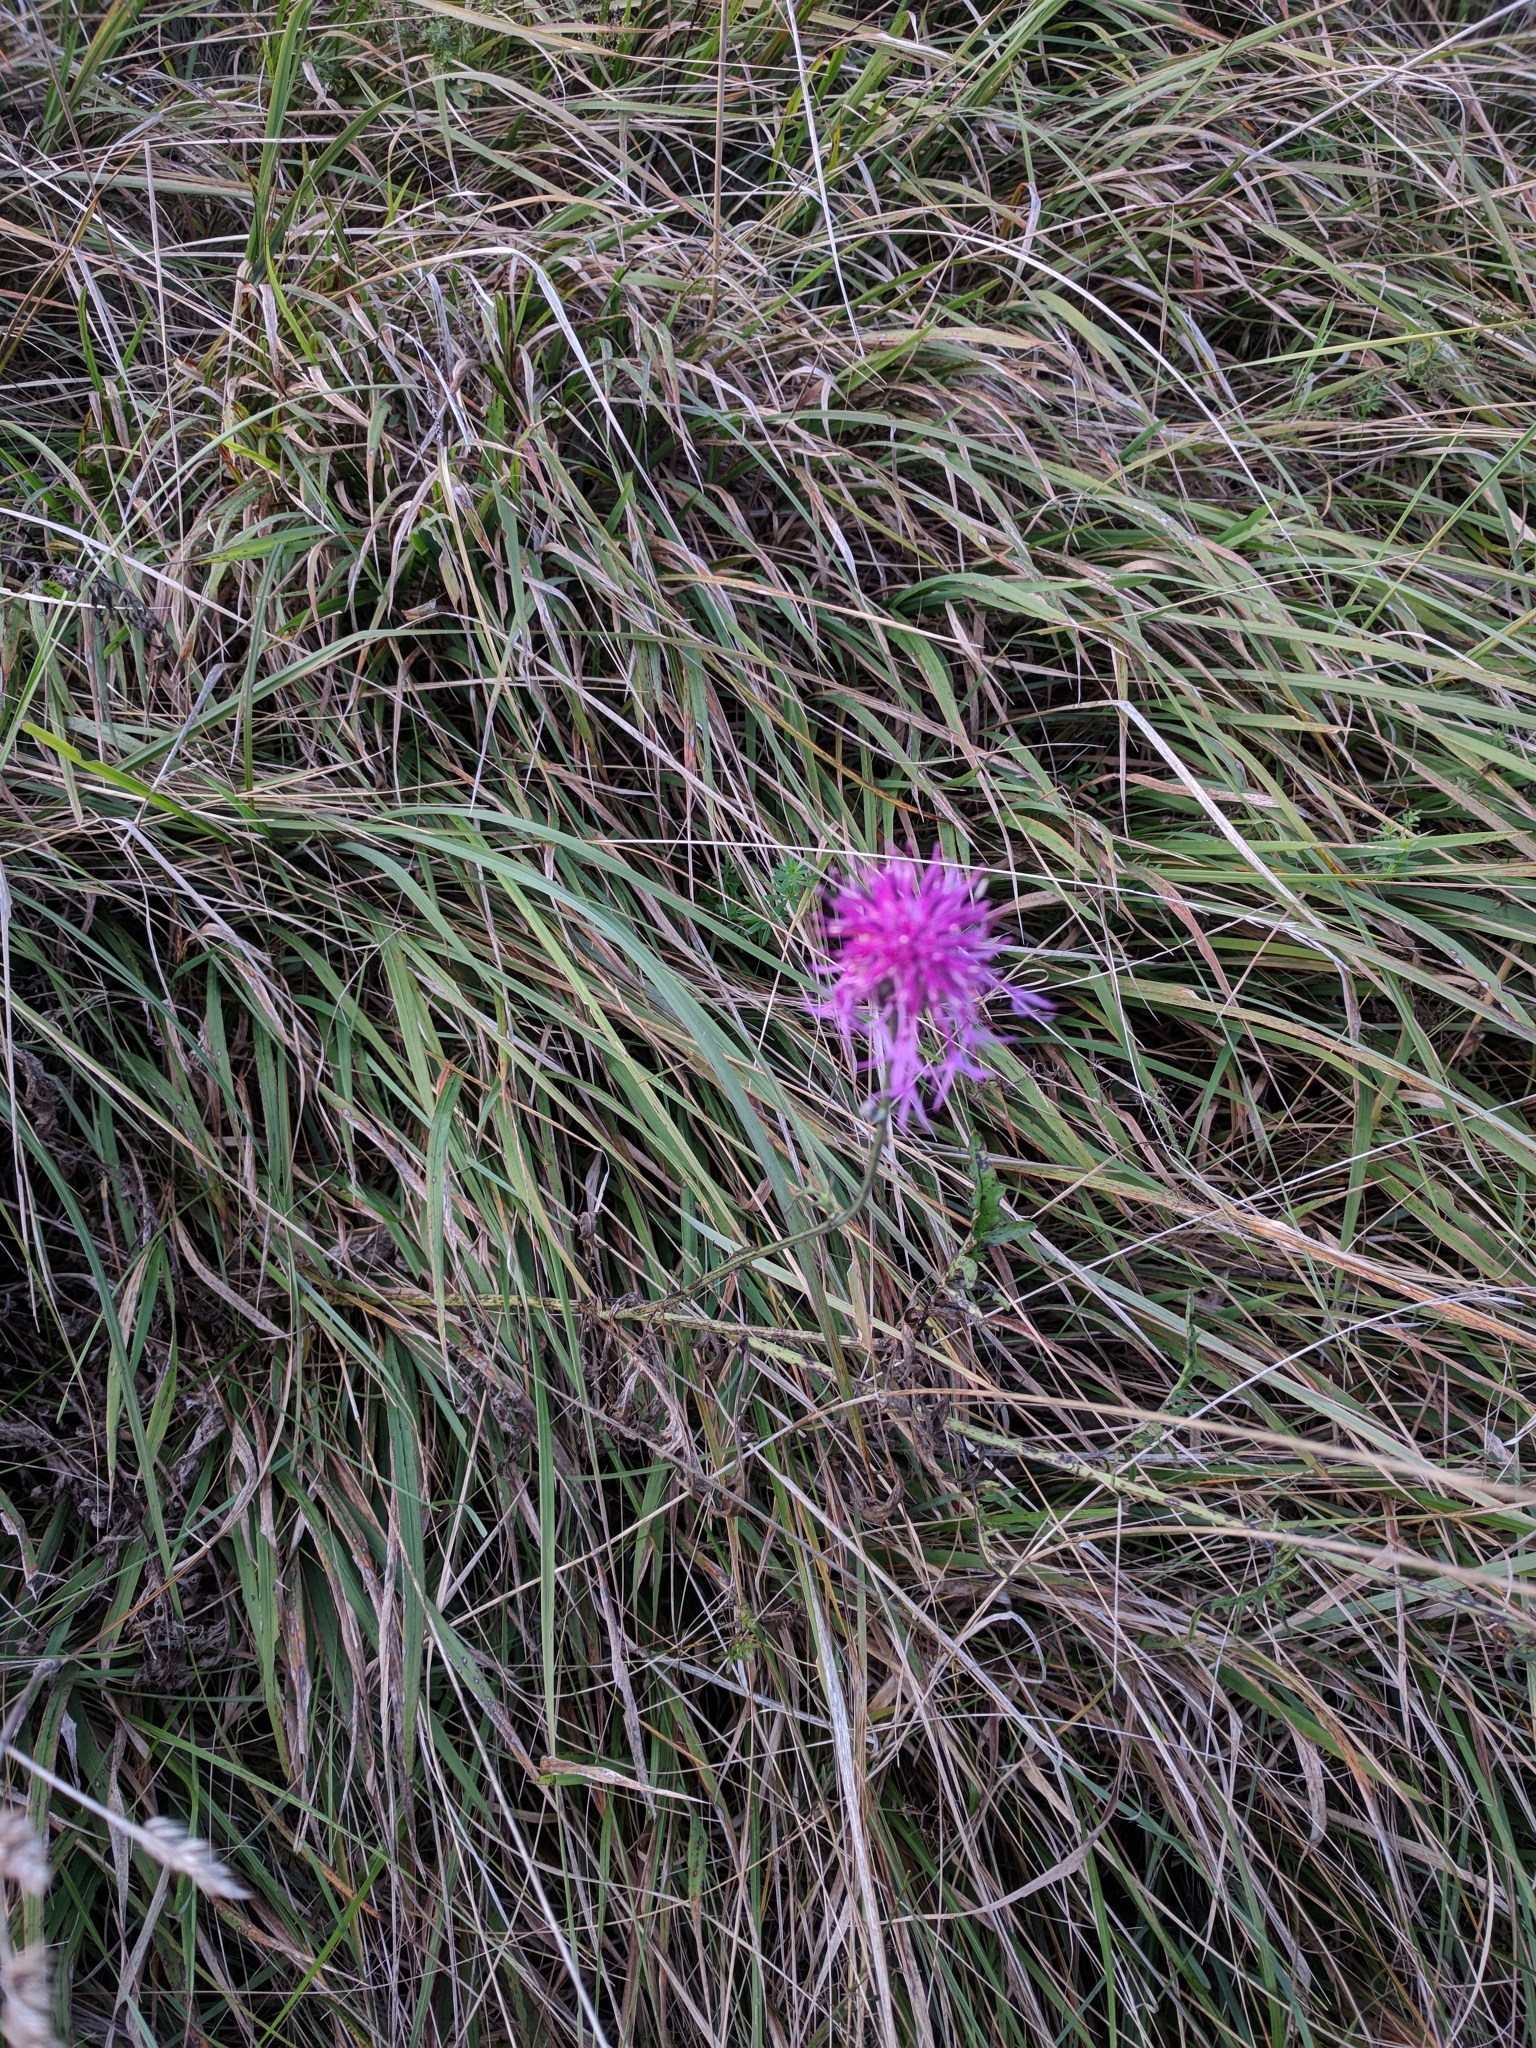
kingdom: Plantae
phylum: Tracheophyta
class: Magnoliopsida
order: Asterales
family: Asteraceae
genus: Centaurea
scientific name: Centaurea scabiosa
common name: Greater knapweed
